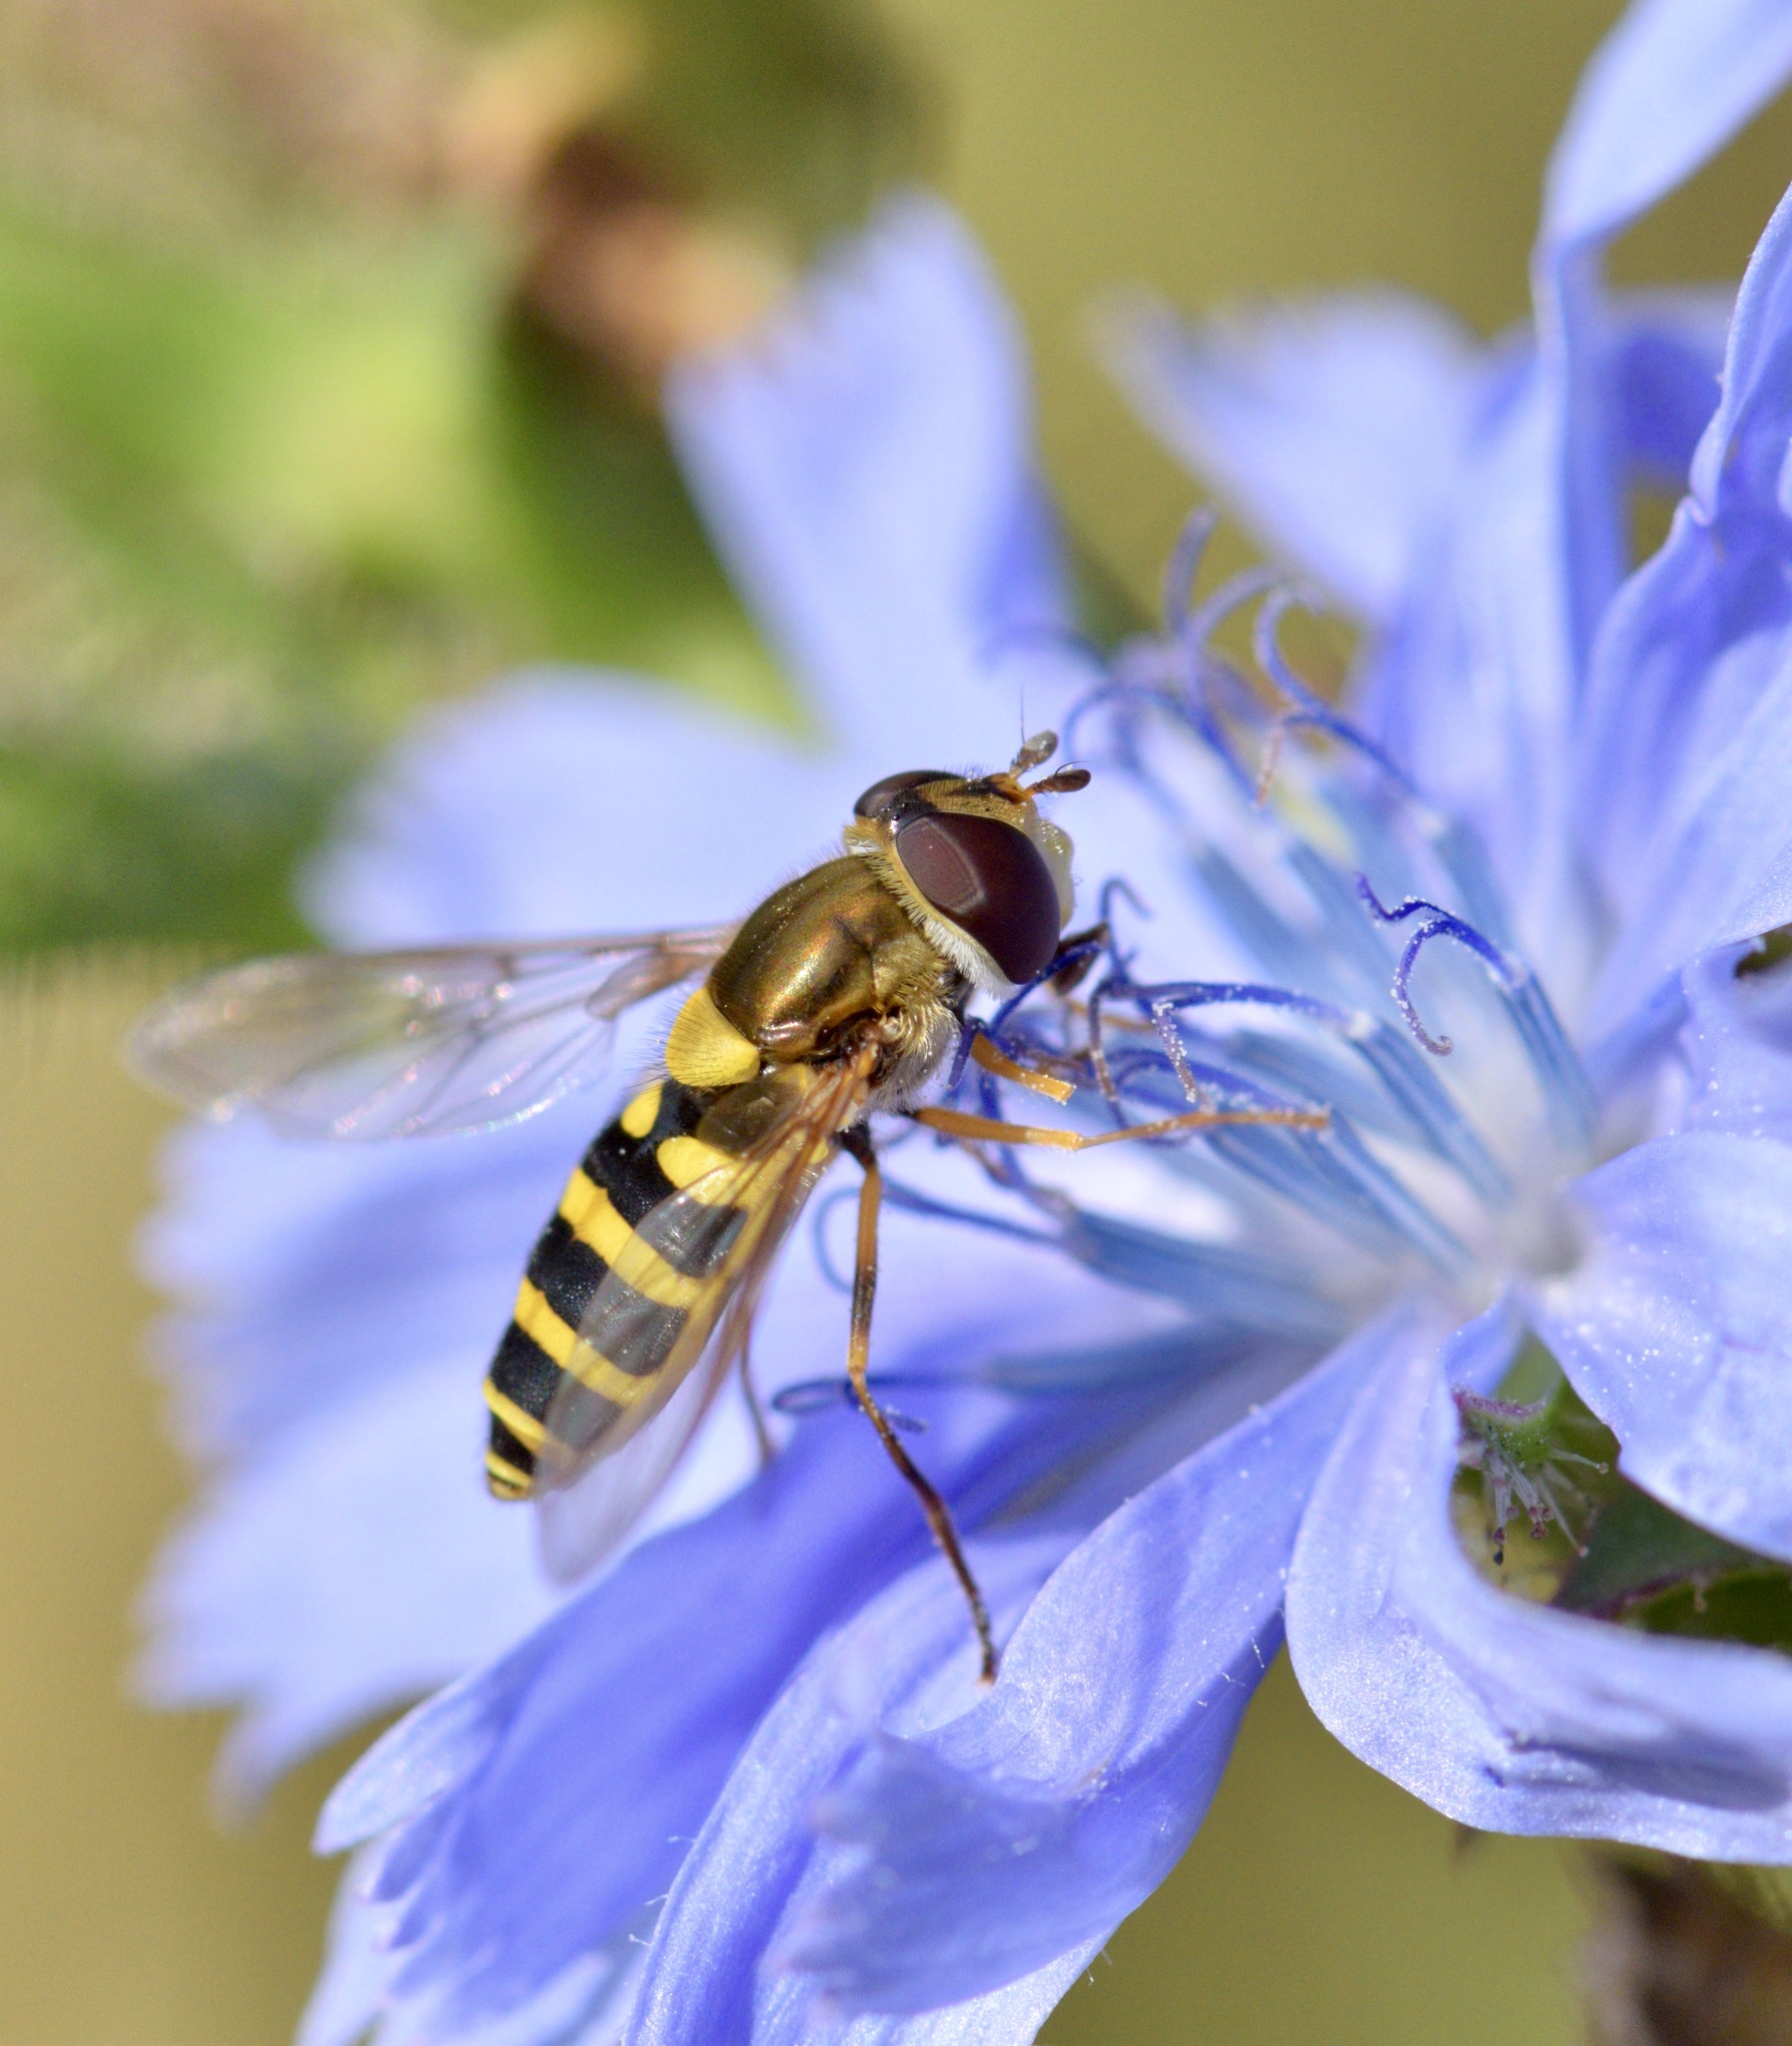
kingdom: Animalia
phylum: Arthropoda
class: Insecta
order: Diptera
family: Syrphidae
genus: Syrphus
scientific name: Syrphus rectus
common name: Yellow-legged flower fly
